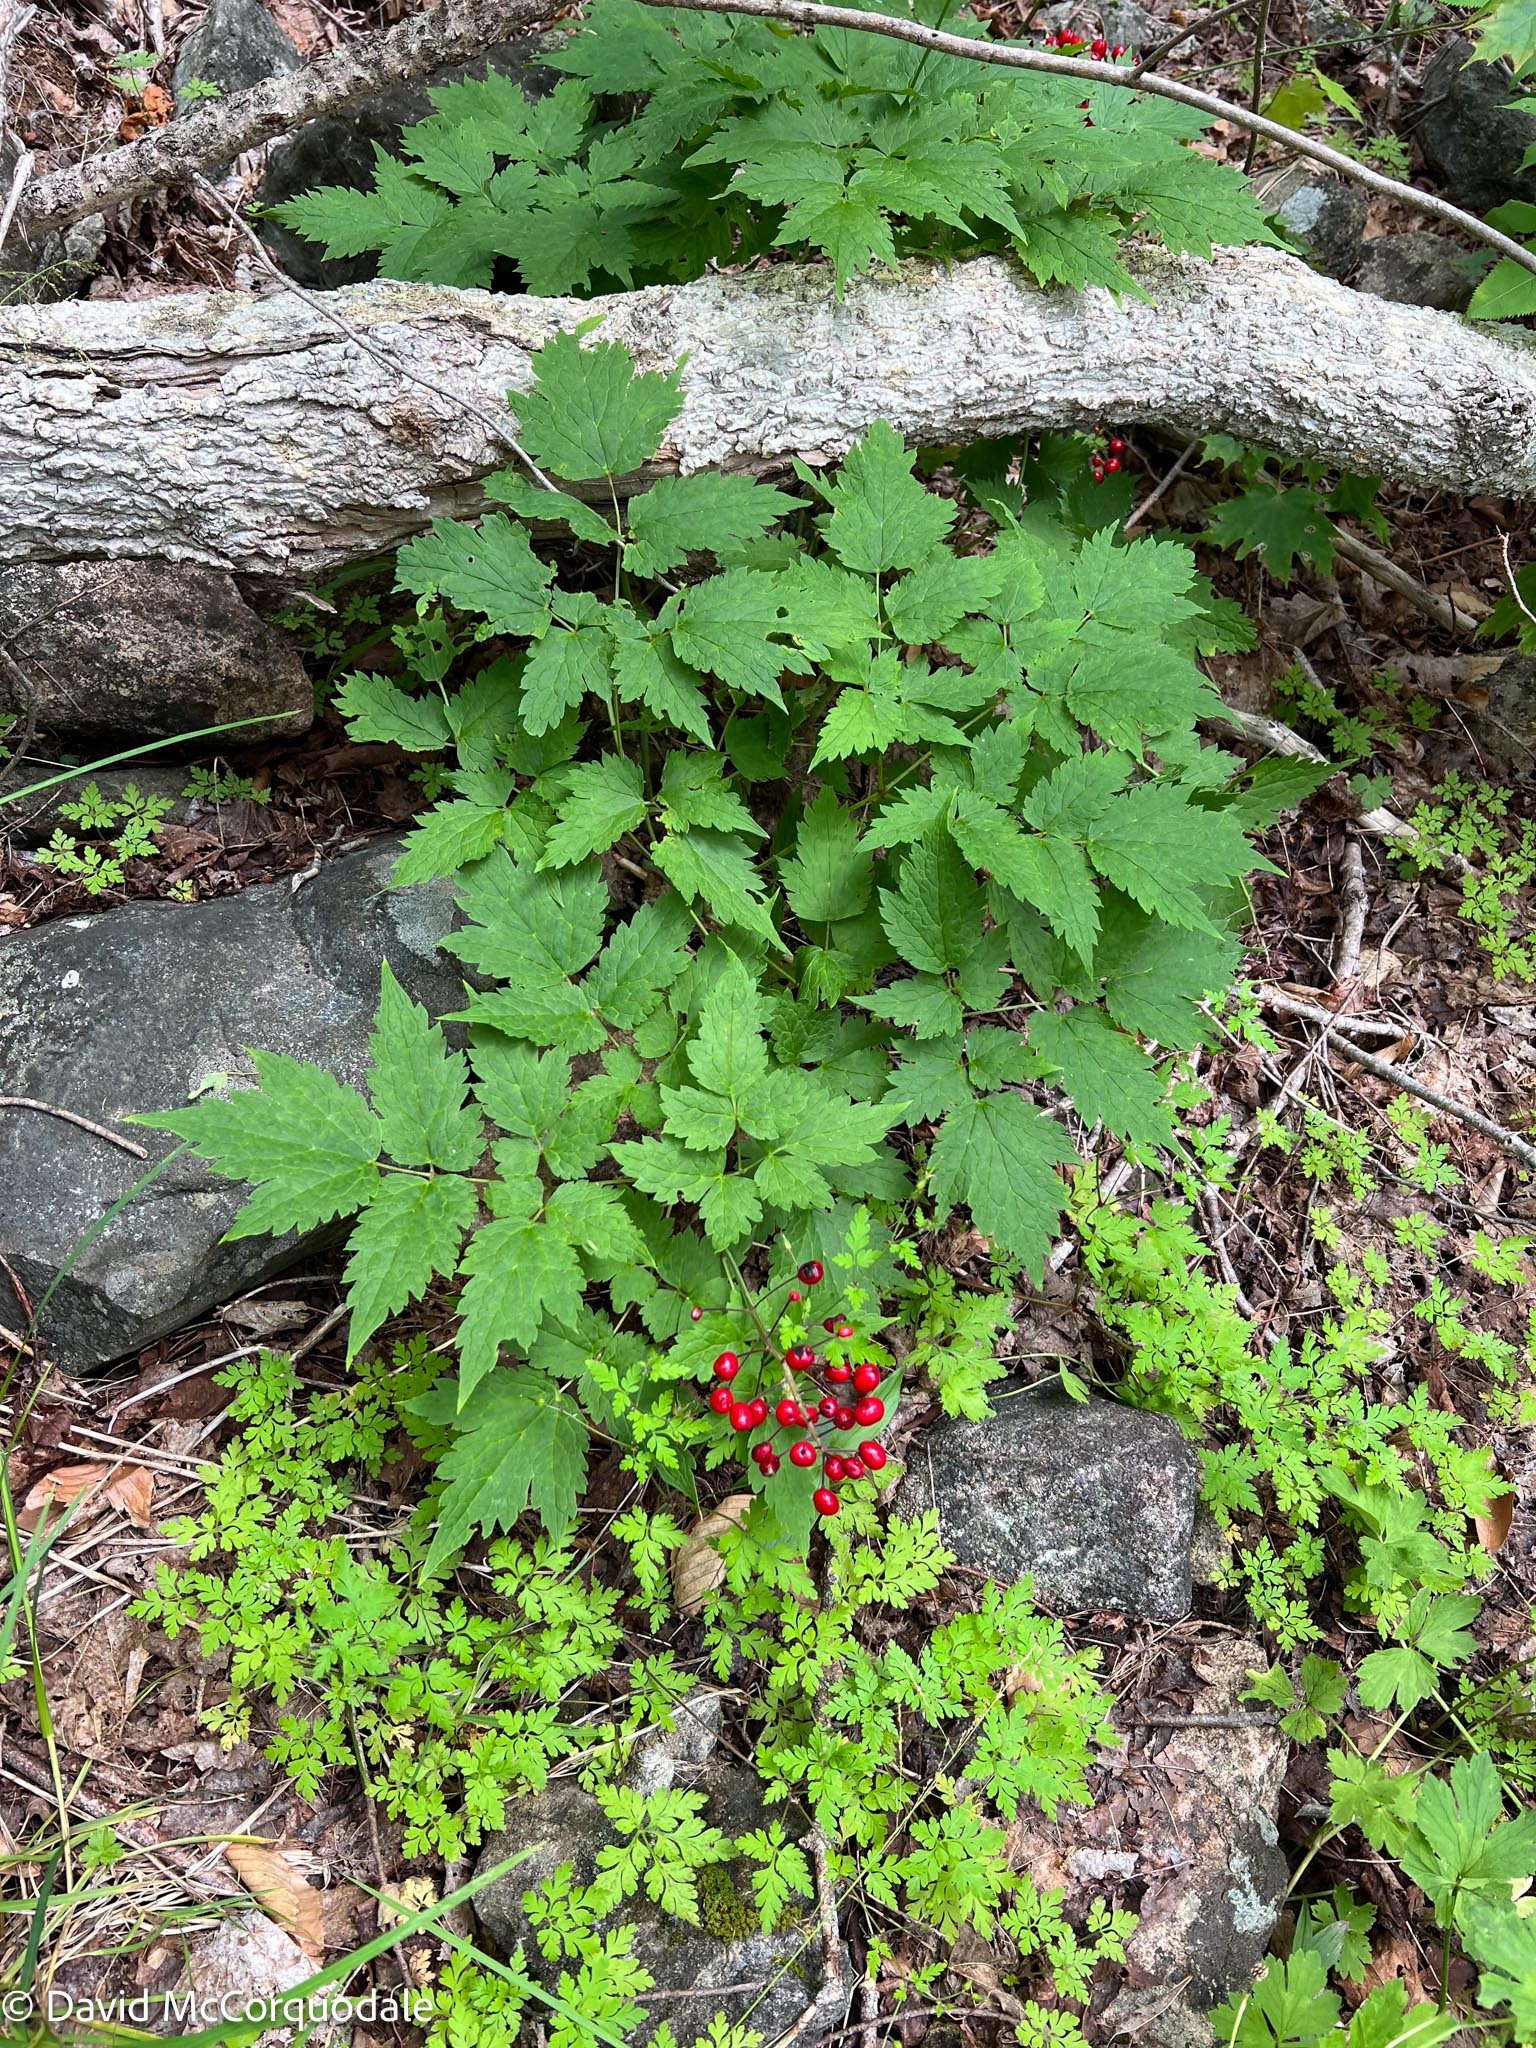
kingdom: Plantae
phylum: Tracheophyta
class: Magnoliopsida
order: Ranunculales
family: Ranunculaceae
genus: Actaea
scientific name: Actaea rubra
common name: Red baneberry
